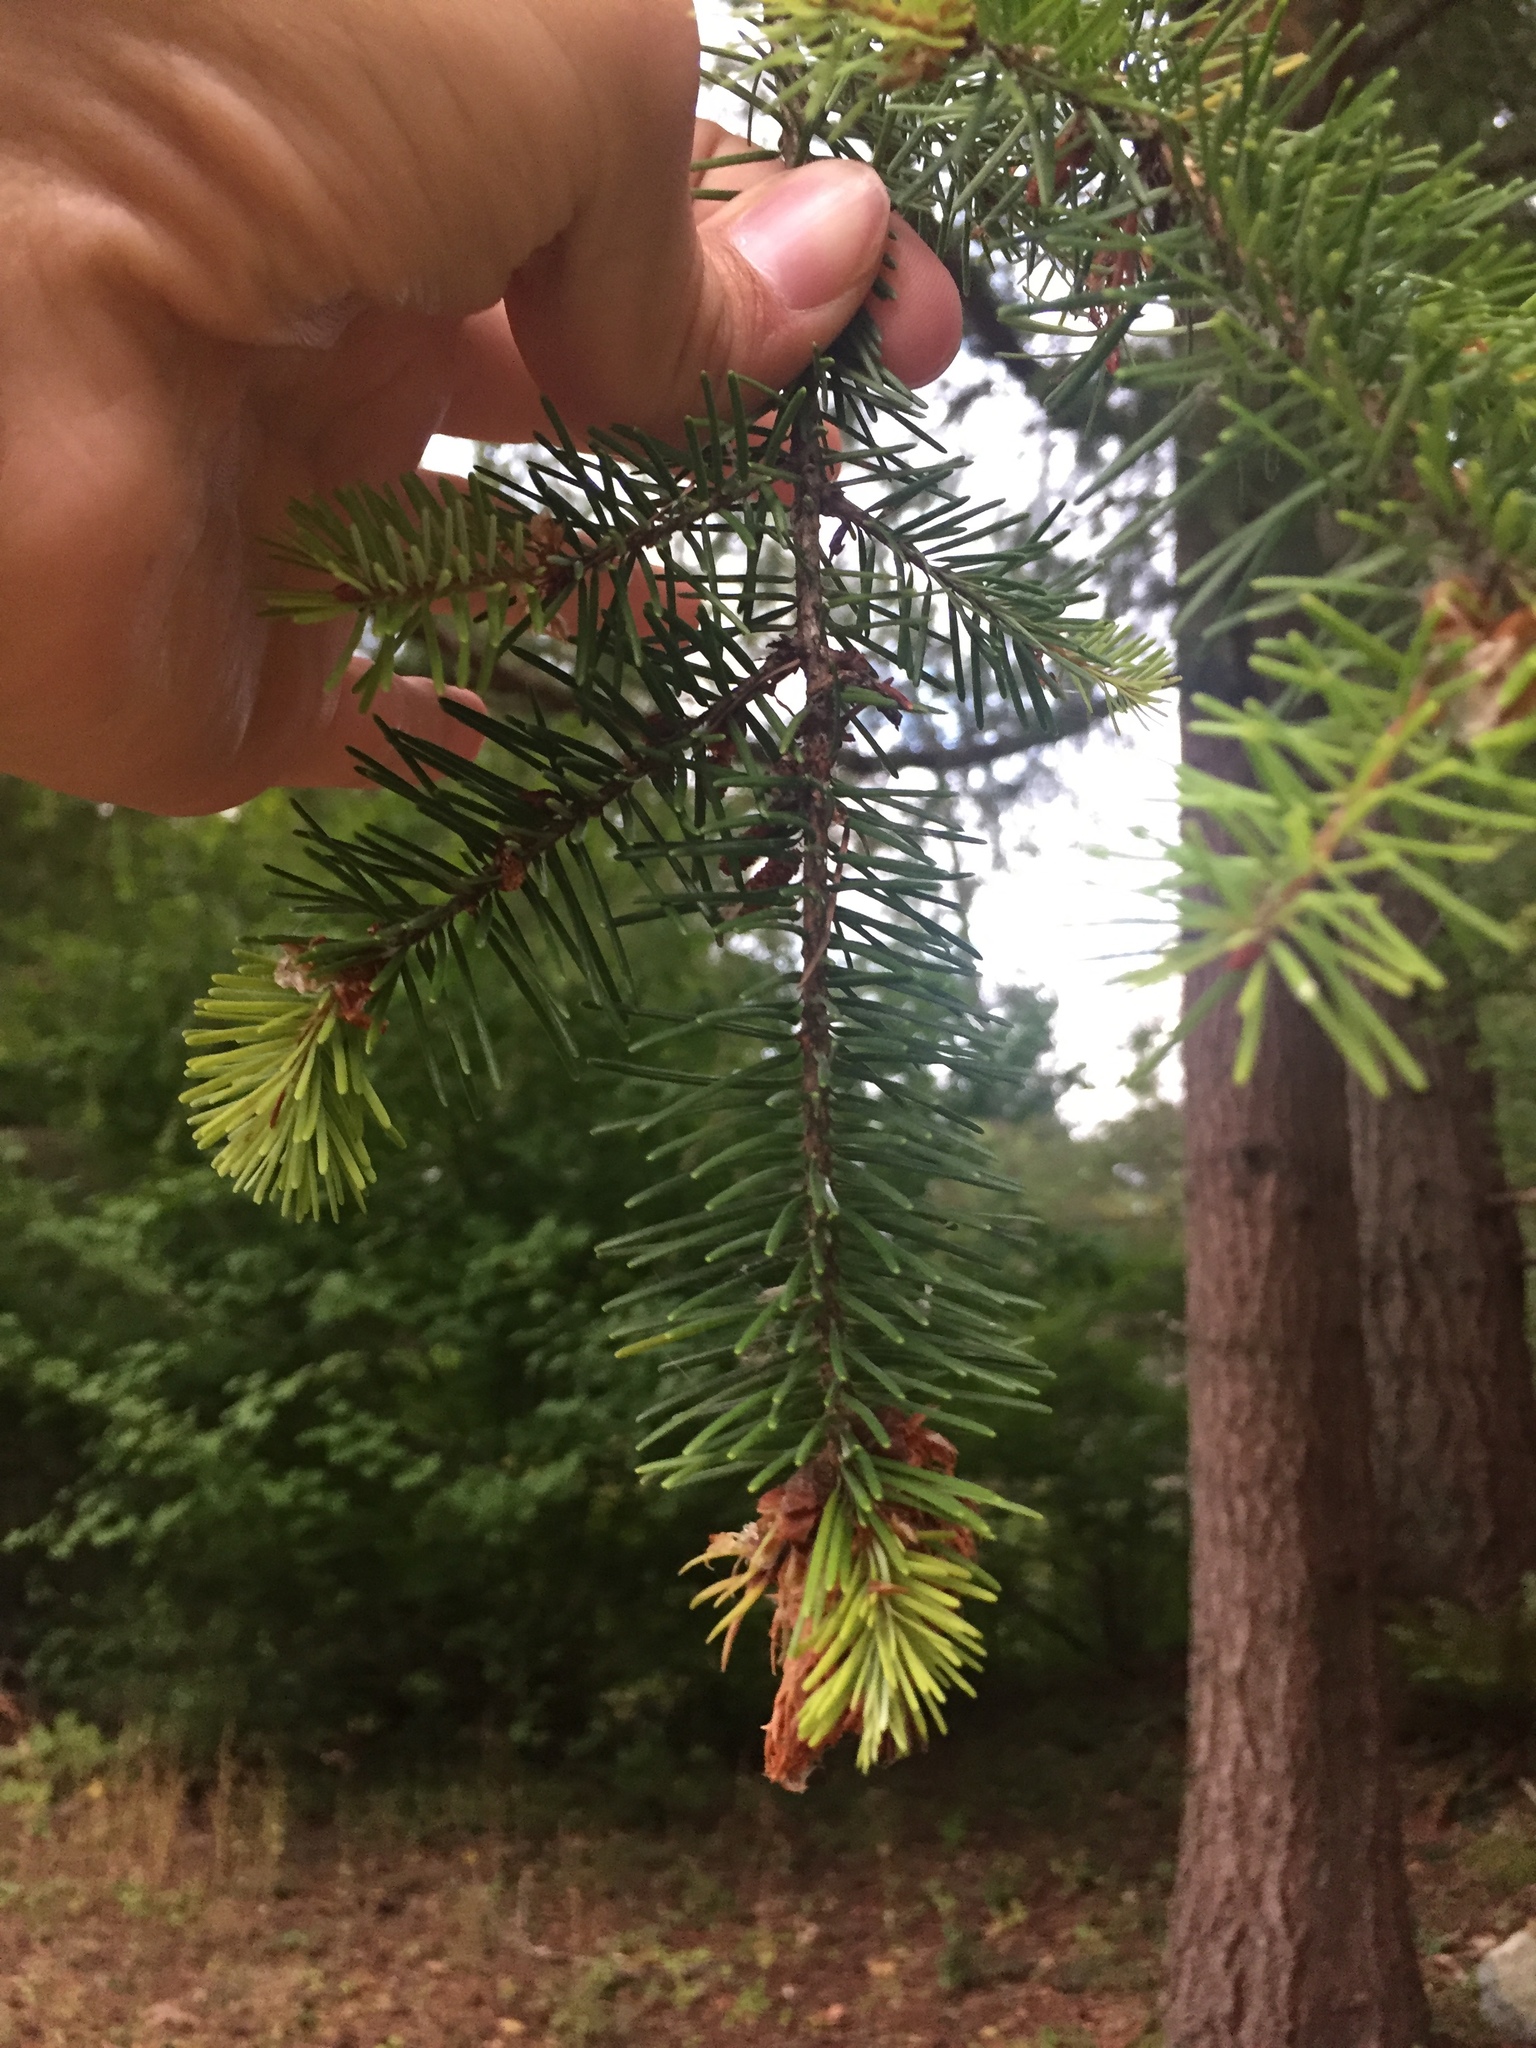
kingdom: Plantae
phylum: Tracheophyta
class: Pinopsida
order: Pinales
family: Pinaceae
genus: Pseudotsuga
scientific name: Pseudotsuga menziesii
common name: Douglas fir
